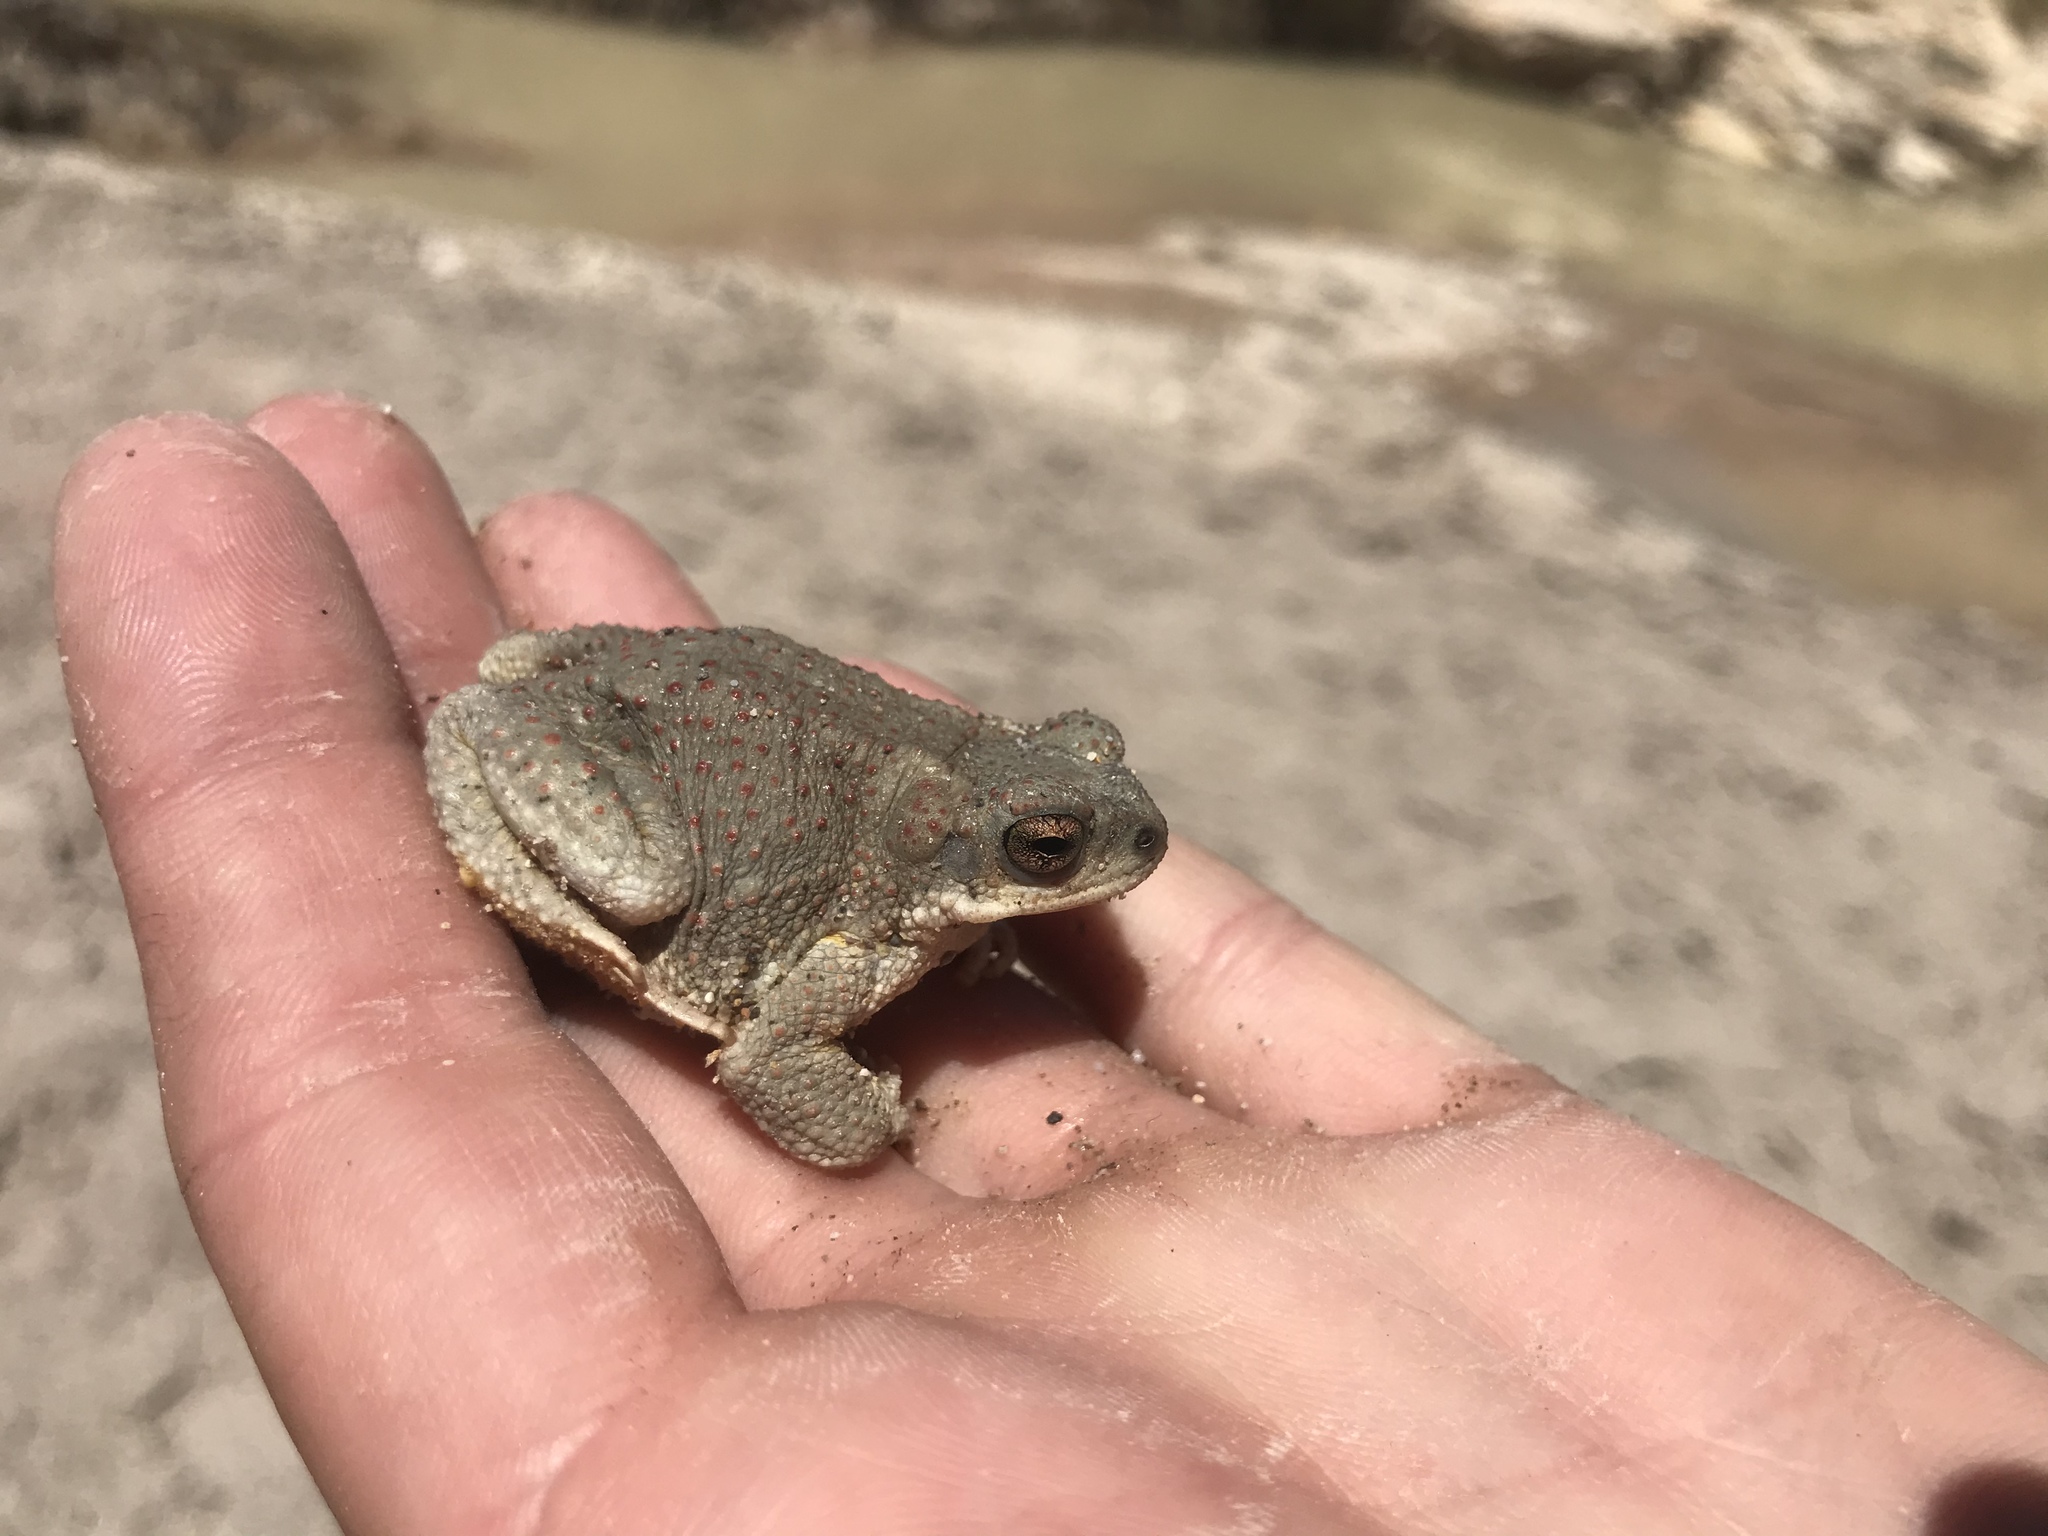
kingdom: Animalia
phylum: Chordata
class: Amphibia
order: Anura
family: Bufonidae
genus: Anaxyrus
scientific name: Anaxyrus punctatus
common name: Red-spotted toad
